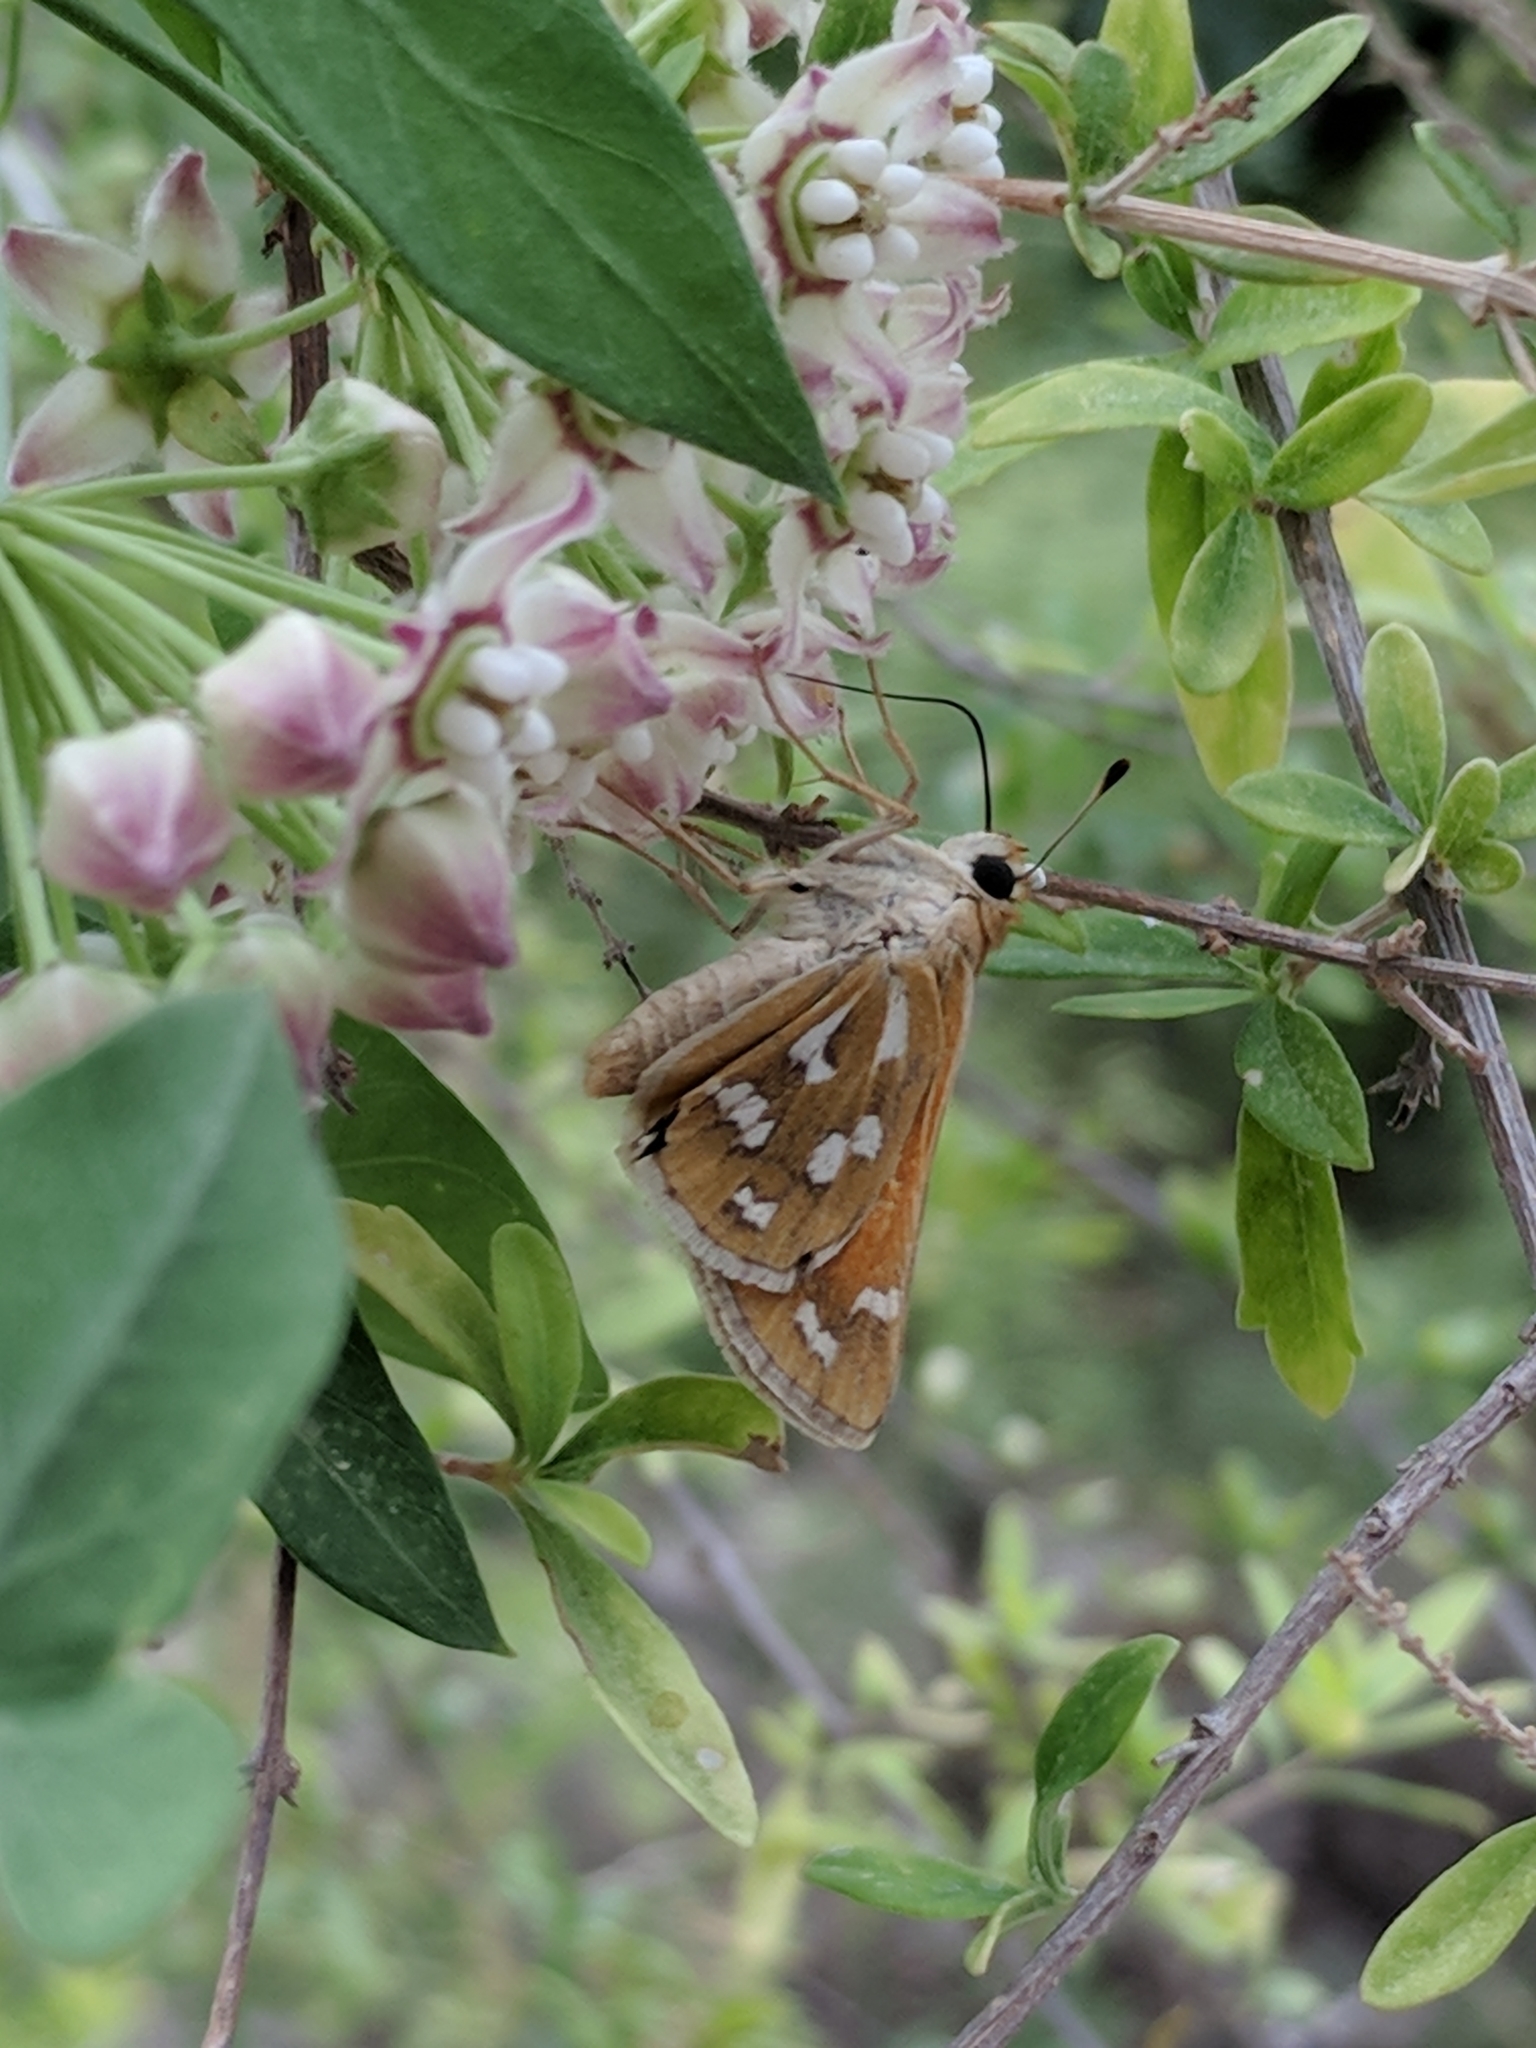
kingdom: Animalia
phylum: Arthropoda
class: Insecta
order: Lepidoptera
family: Hesperiidae
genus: Hesperia
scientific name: Hesperia viridis
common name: Green skipper
